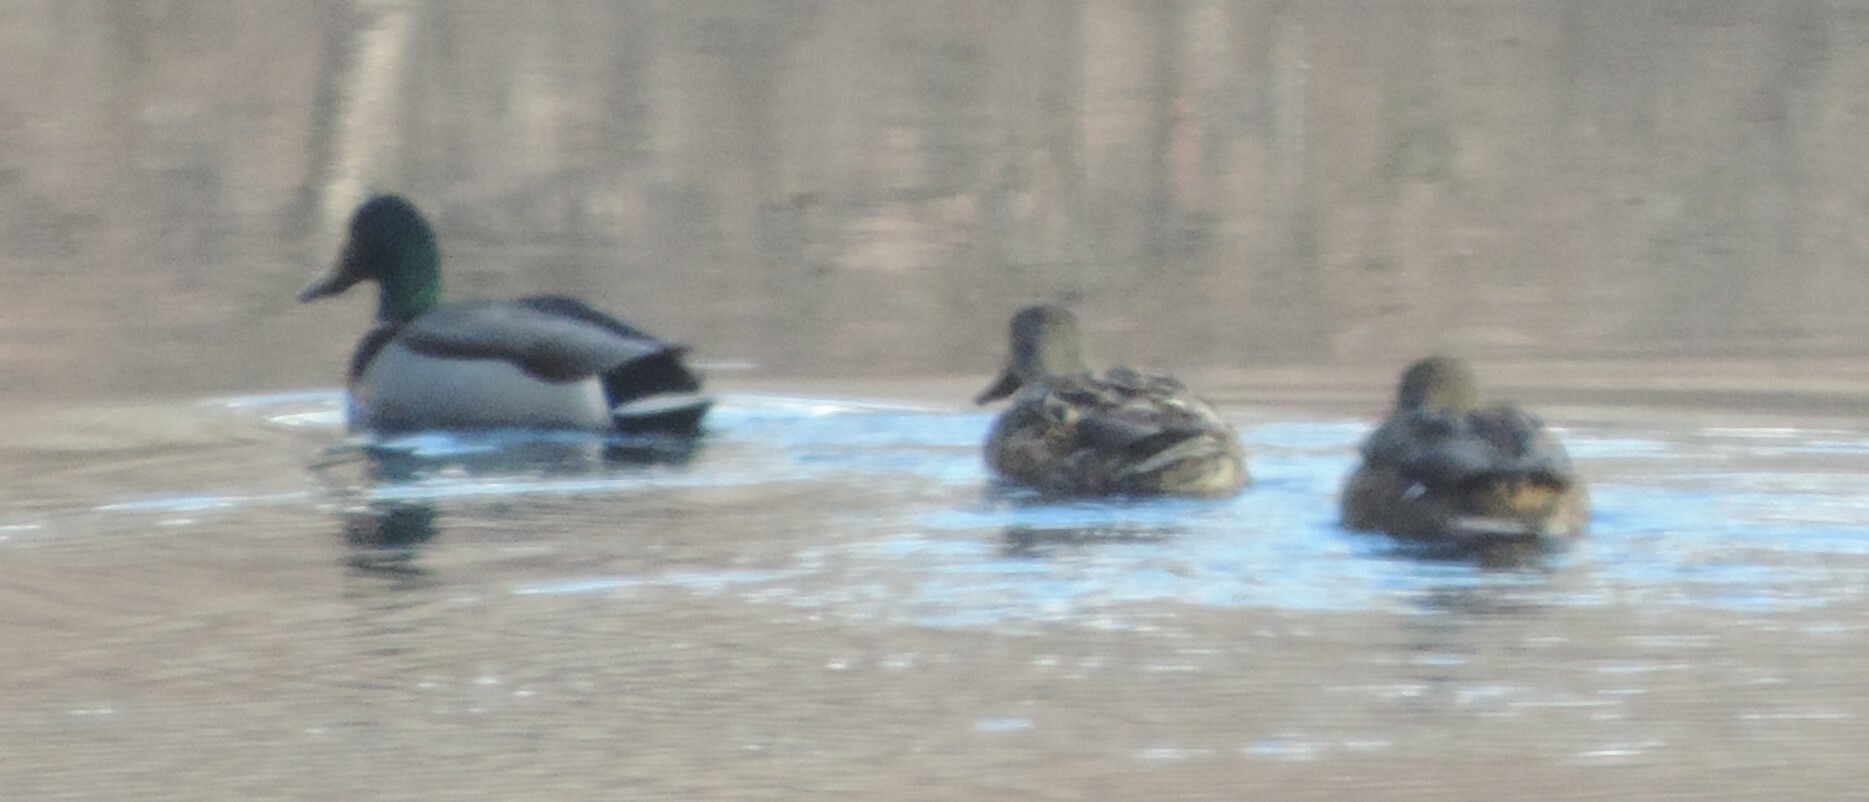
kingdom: Animalia
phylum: Chordata
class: Aves
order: Anseriformes
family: Anatidae
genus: Anas
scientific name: Anas platyrhynchos
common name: Mallard
